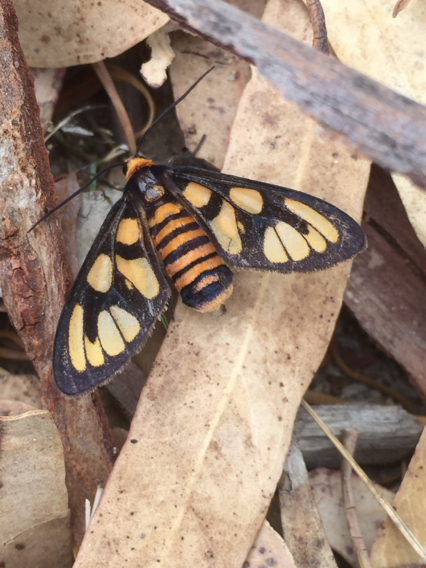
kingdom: Animalia
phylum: Arthropoda
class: Insecta
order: Lepidoptera
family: Erebidae
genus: Amata
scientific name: Amata aperta
